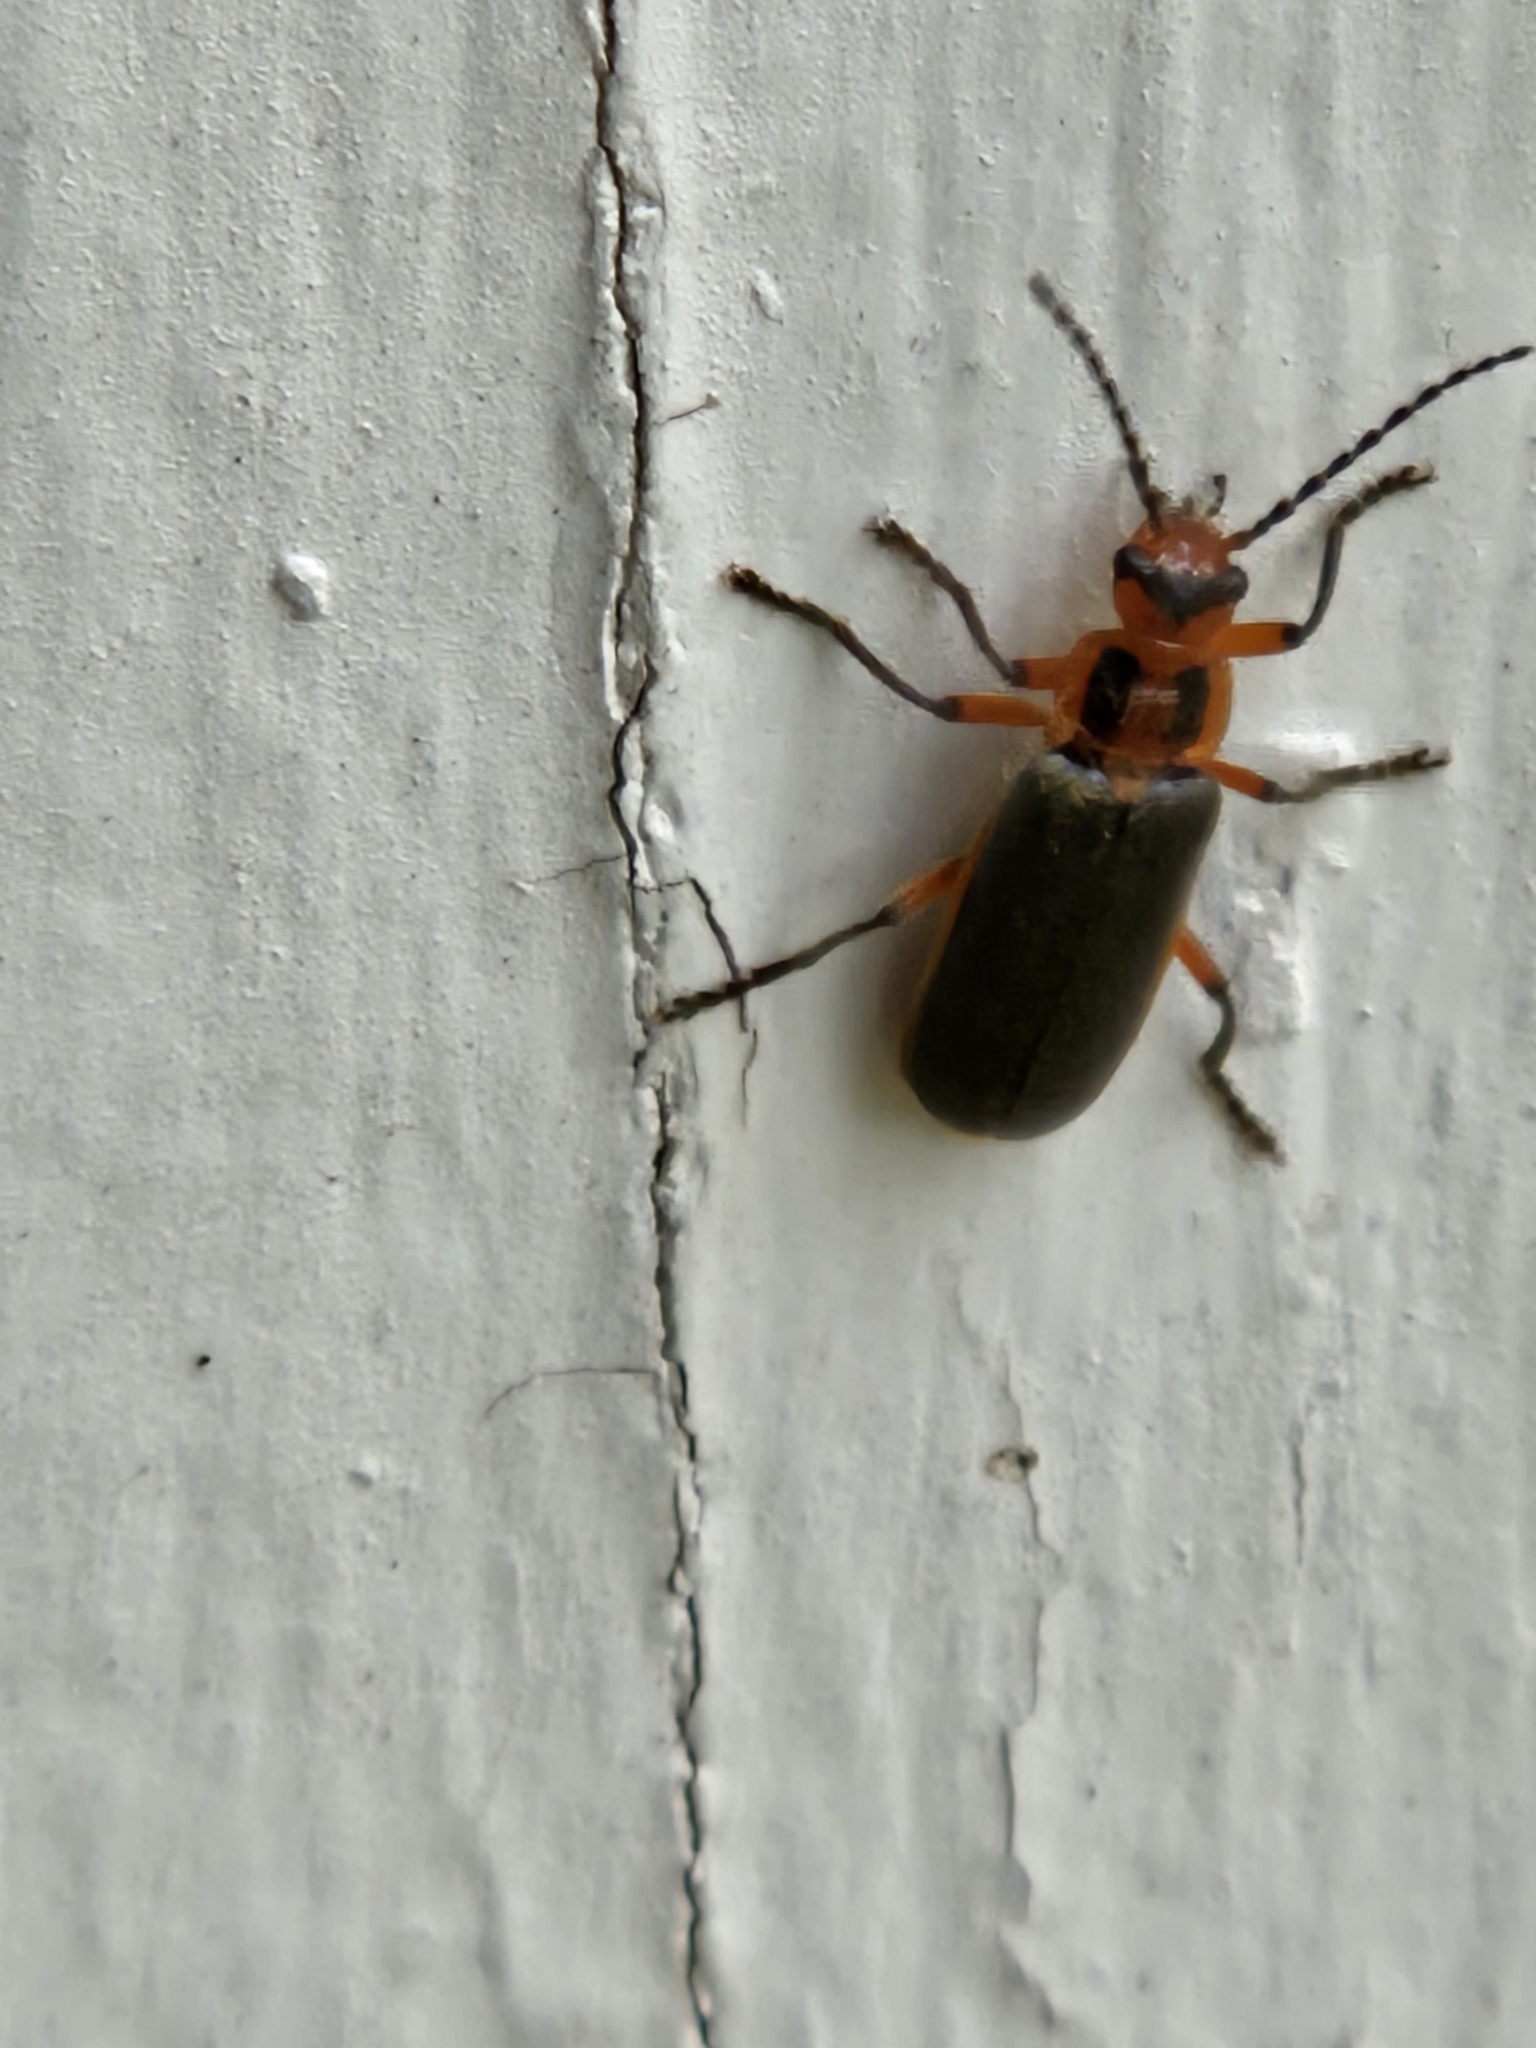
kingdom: Animalia
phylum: Arthropoda
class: Insecta
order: Coleoptera
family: Cantharidae
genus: Atalantycha
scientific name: Atalantycha bilineata
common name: Two-lined leatherwing
